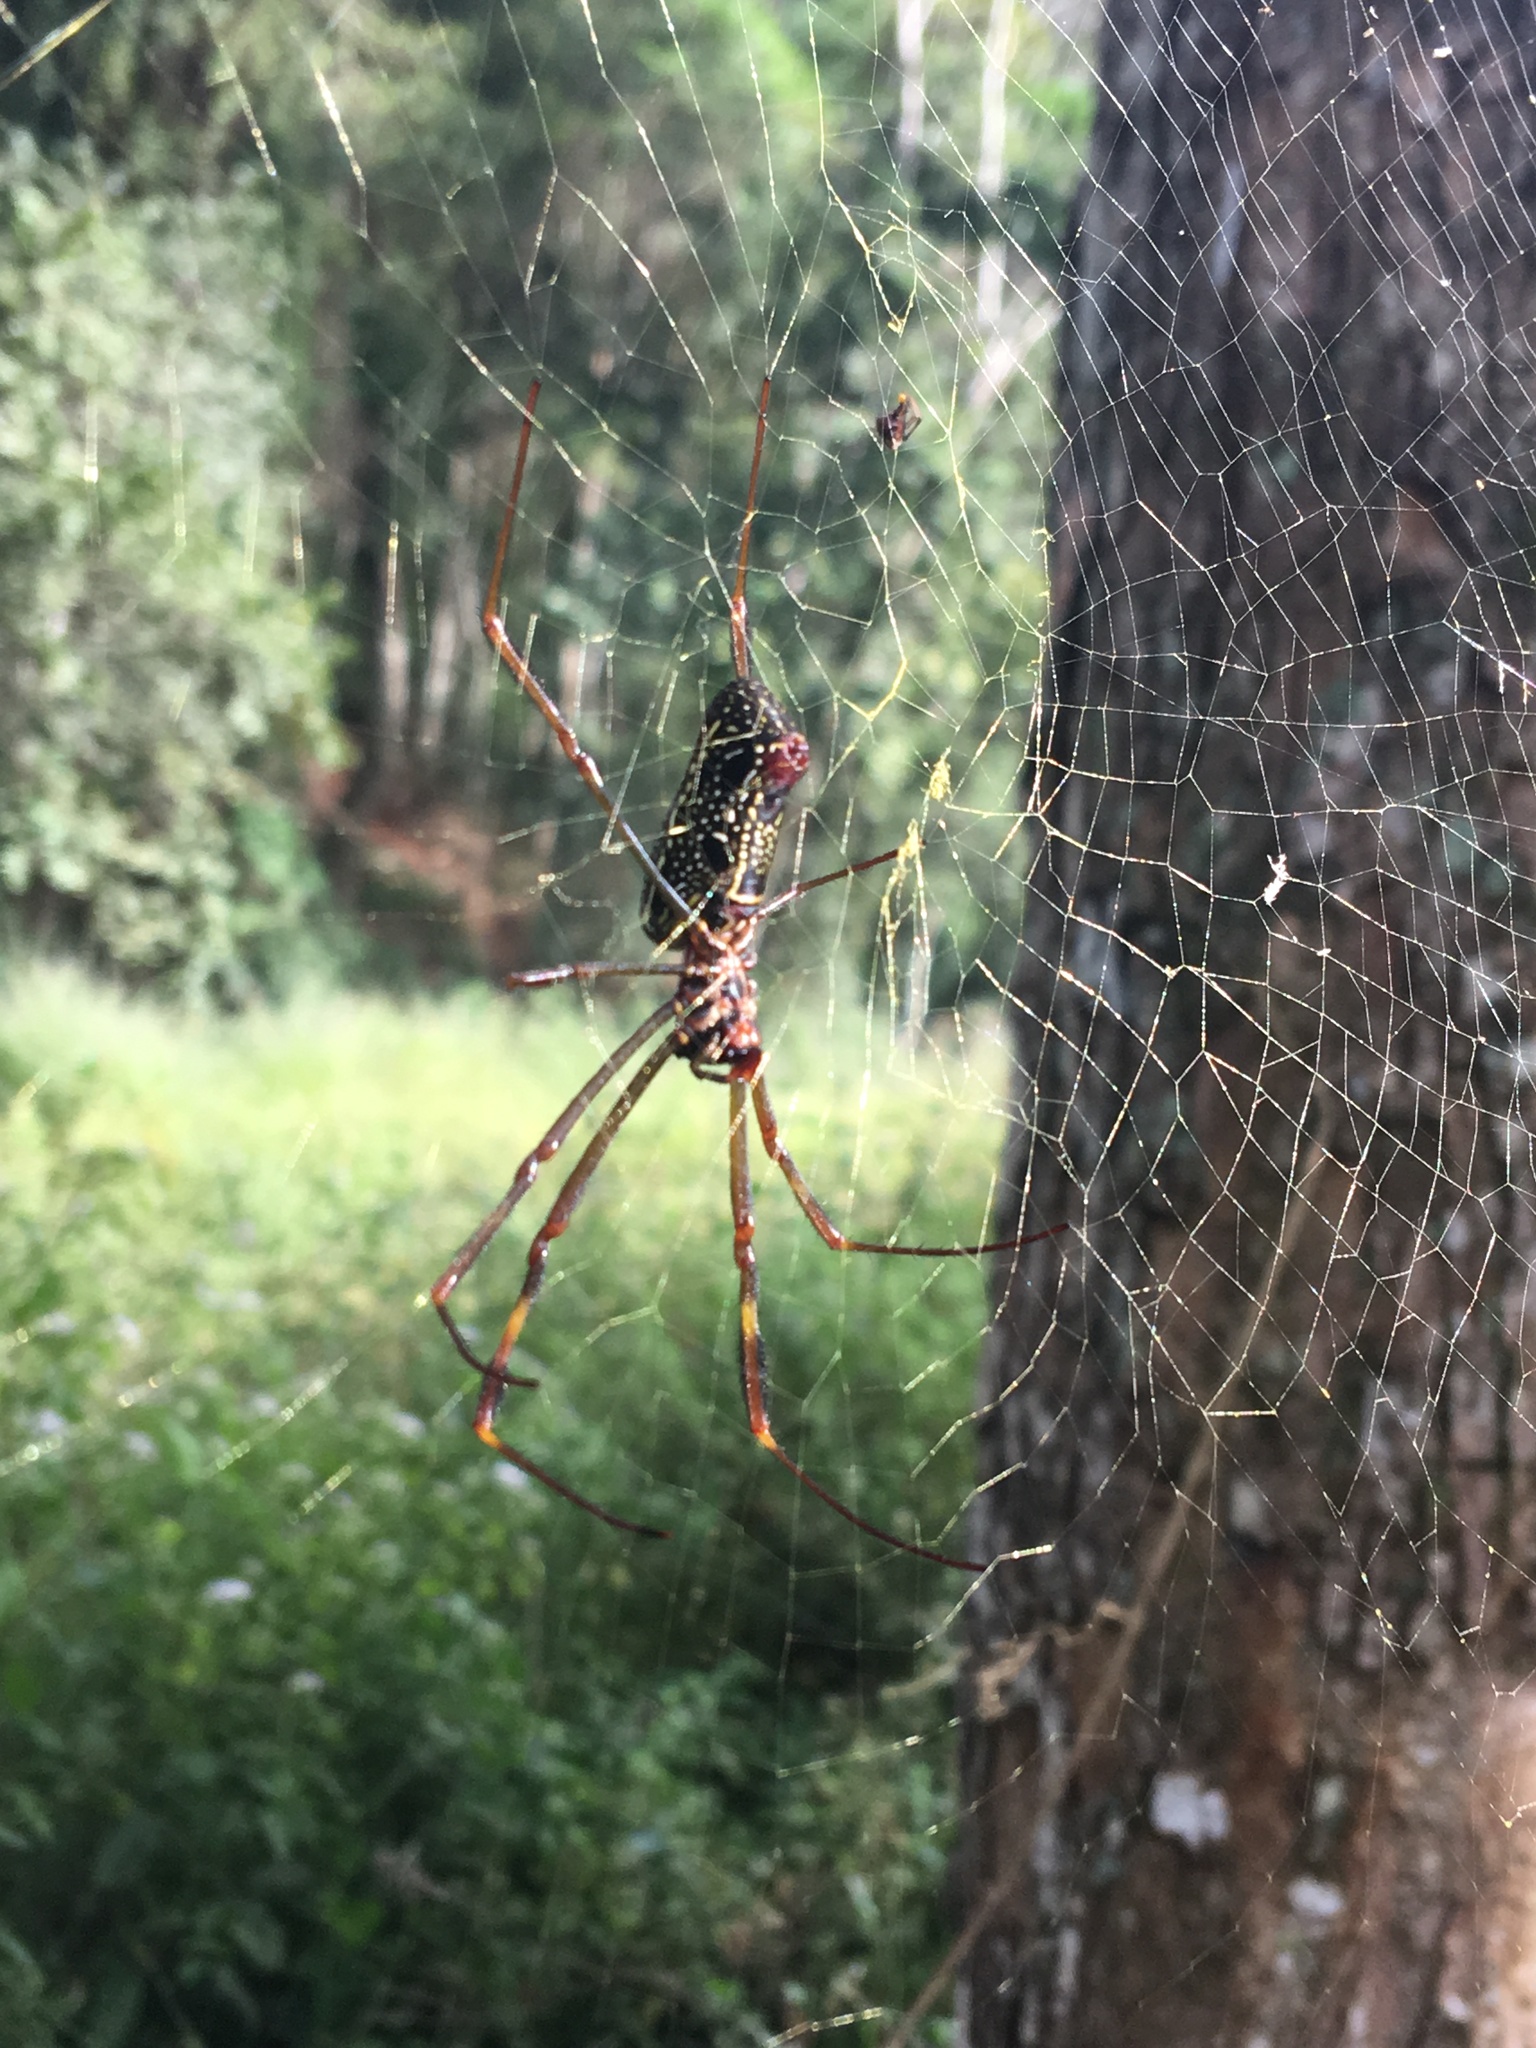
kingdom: Animalia
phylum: Arthropoda
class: Arachnida
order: Araneae
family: Araneidae
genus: Trichonephila
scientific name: Trichonephila clavipes
